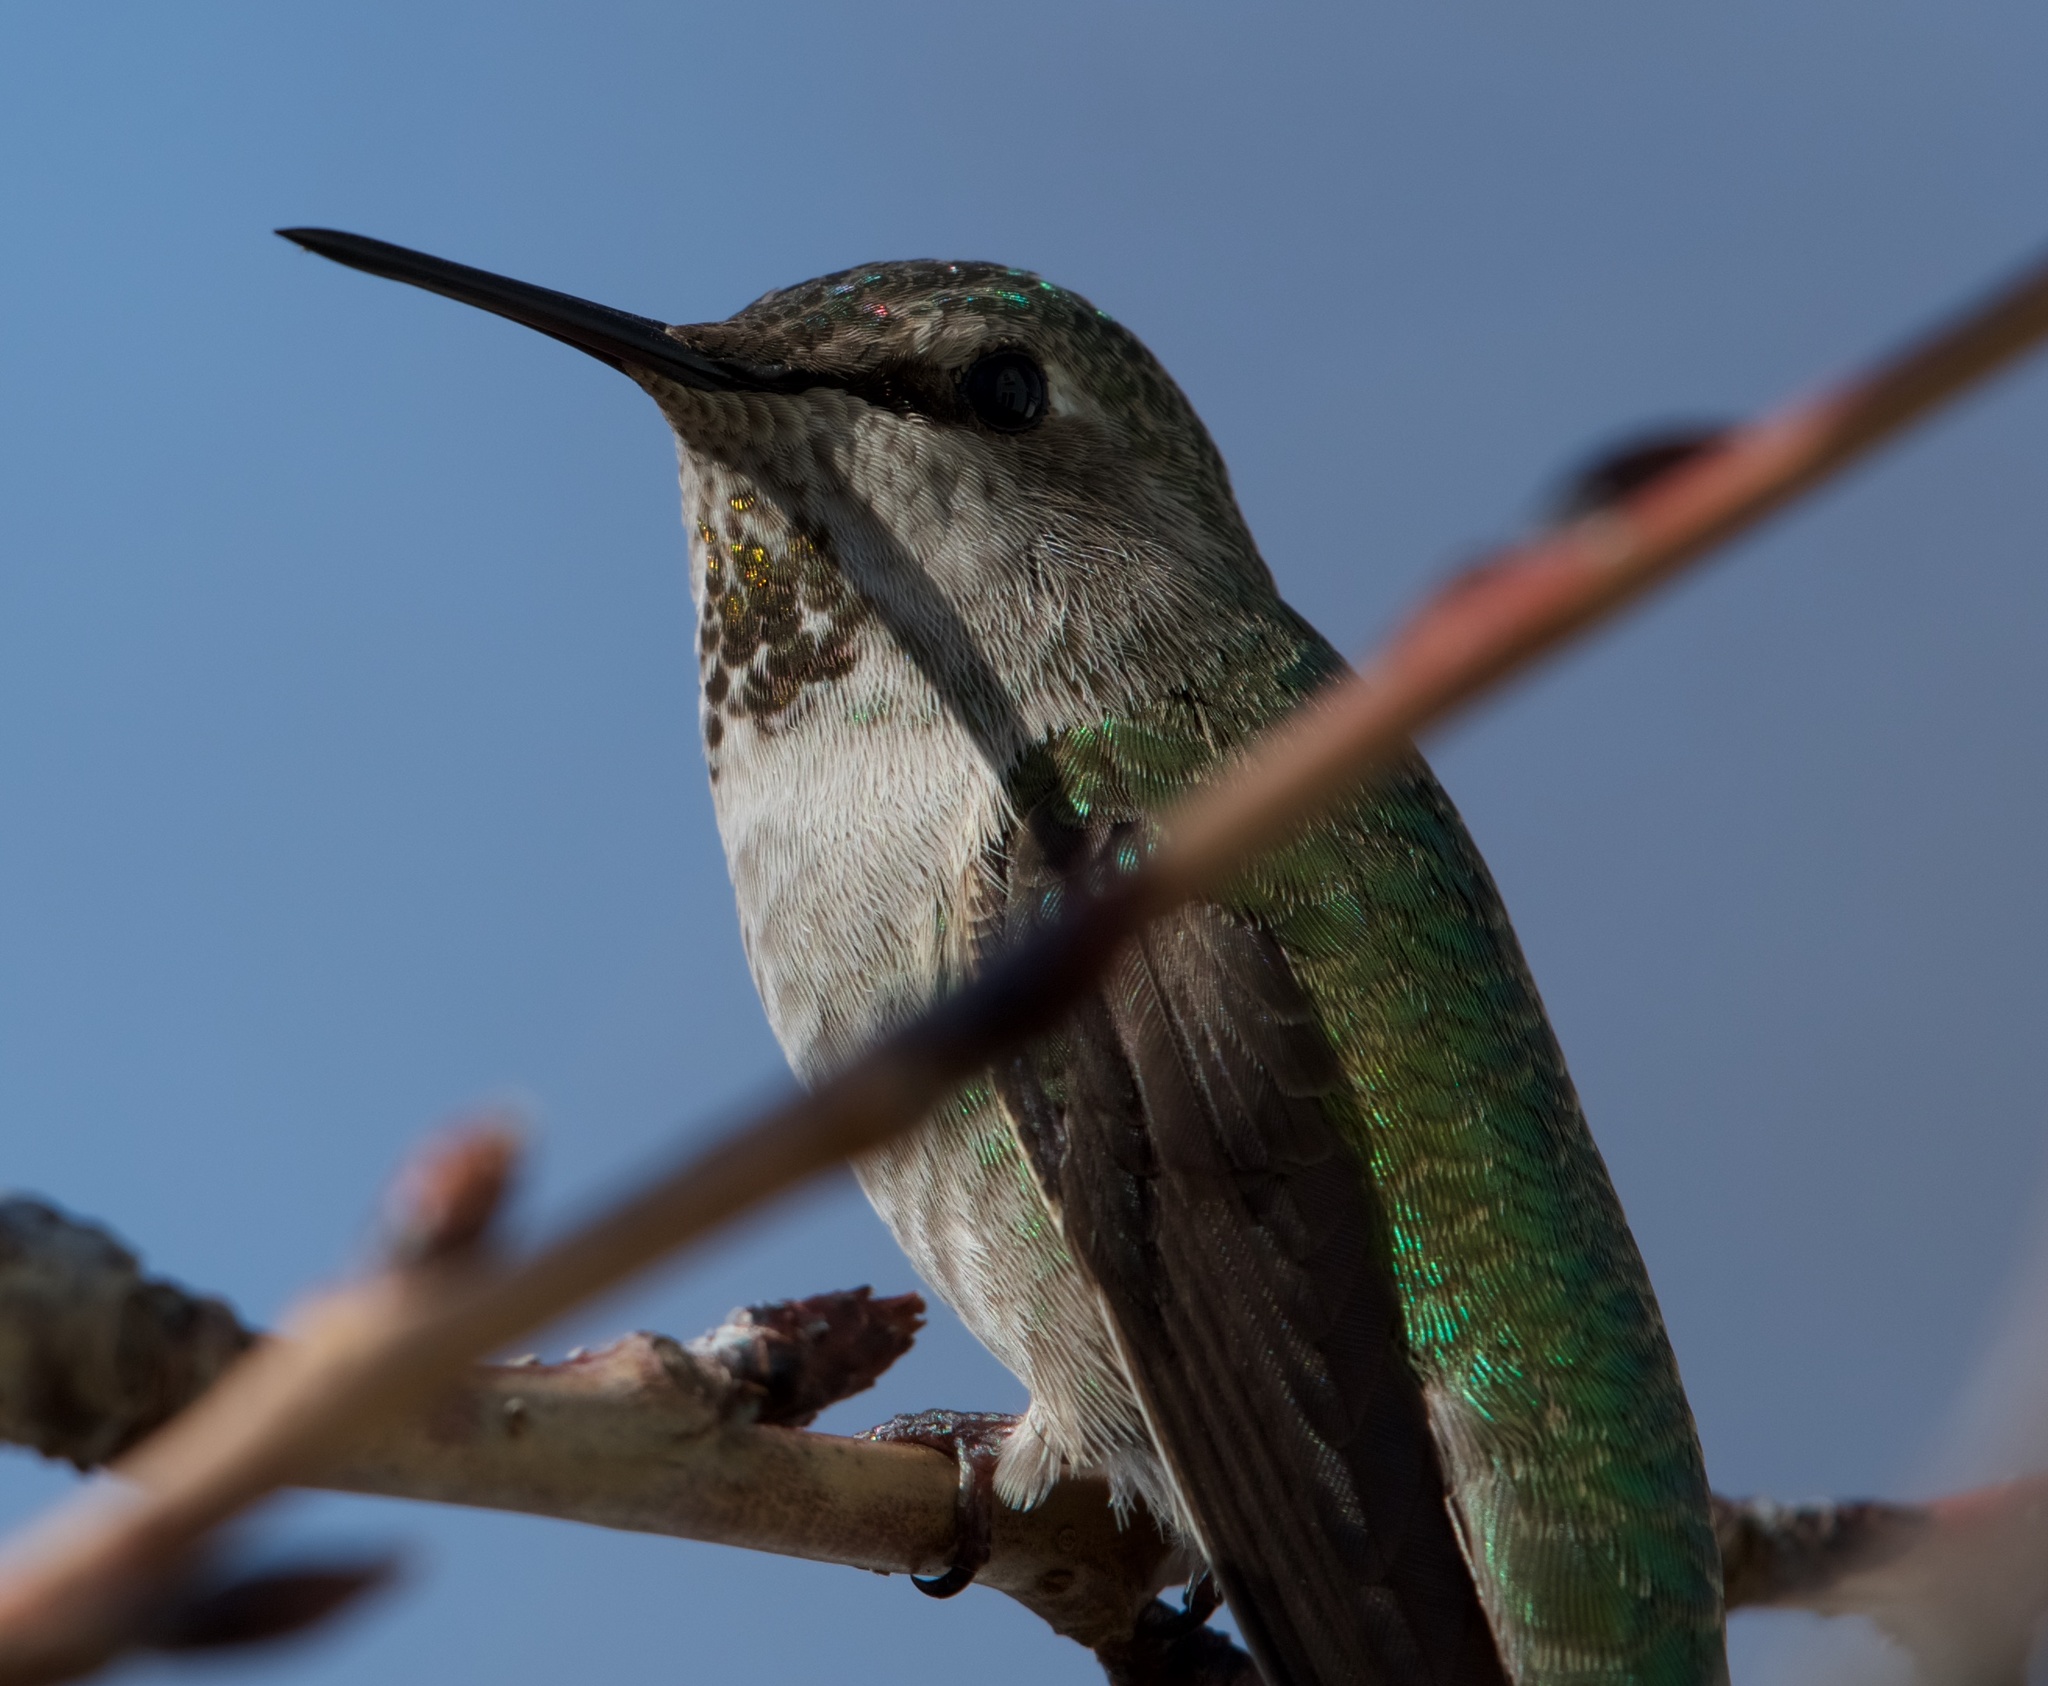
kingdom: Animalia
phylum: Chordata
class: Aves
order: Apodiformes
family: Trochilidae
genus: Calypte
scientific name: Calypte anna
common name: Anna's hummingbird
